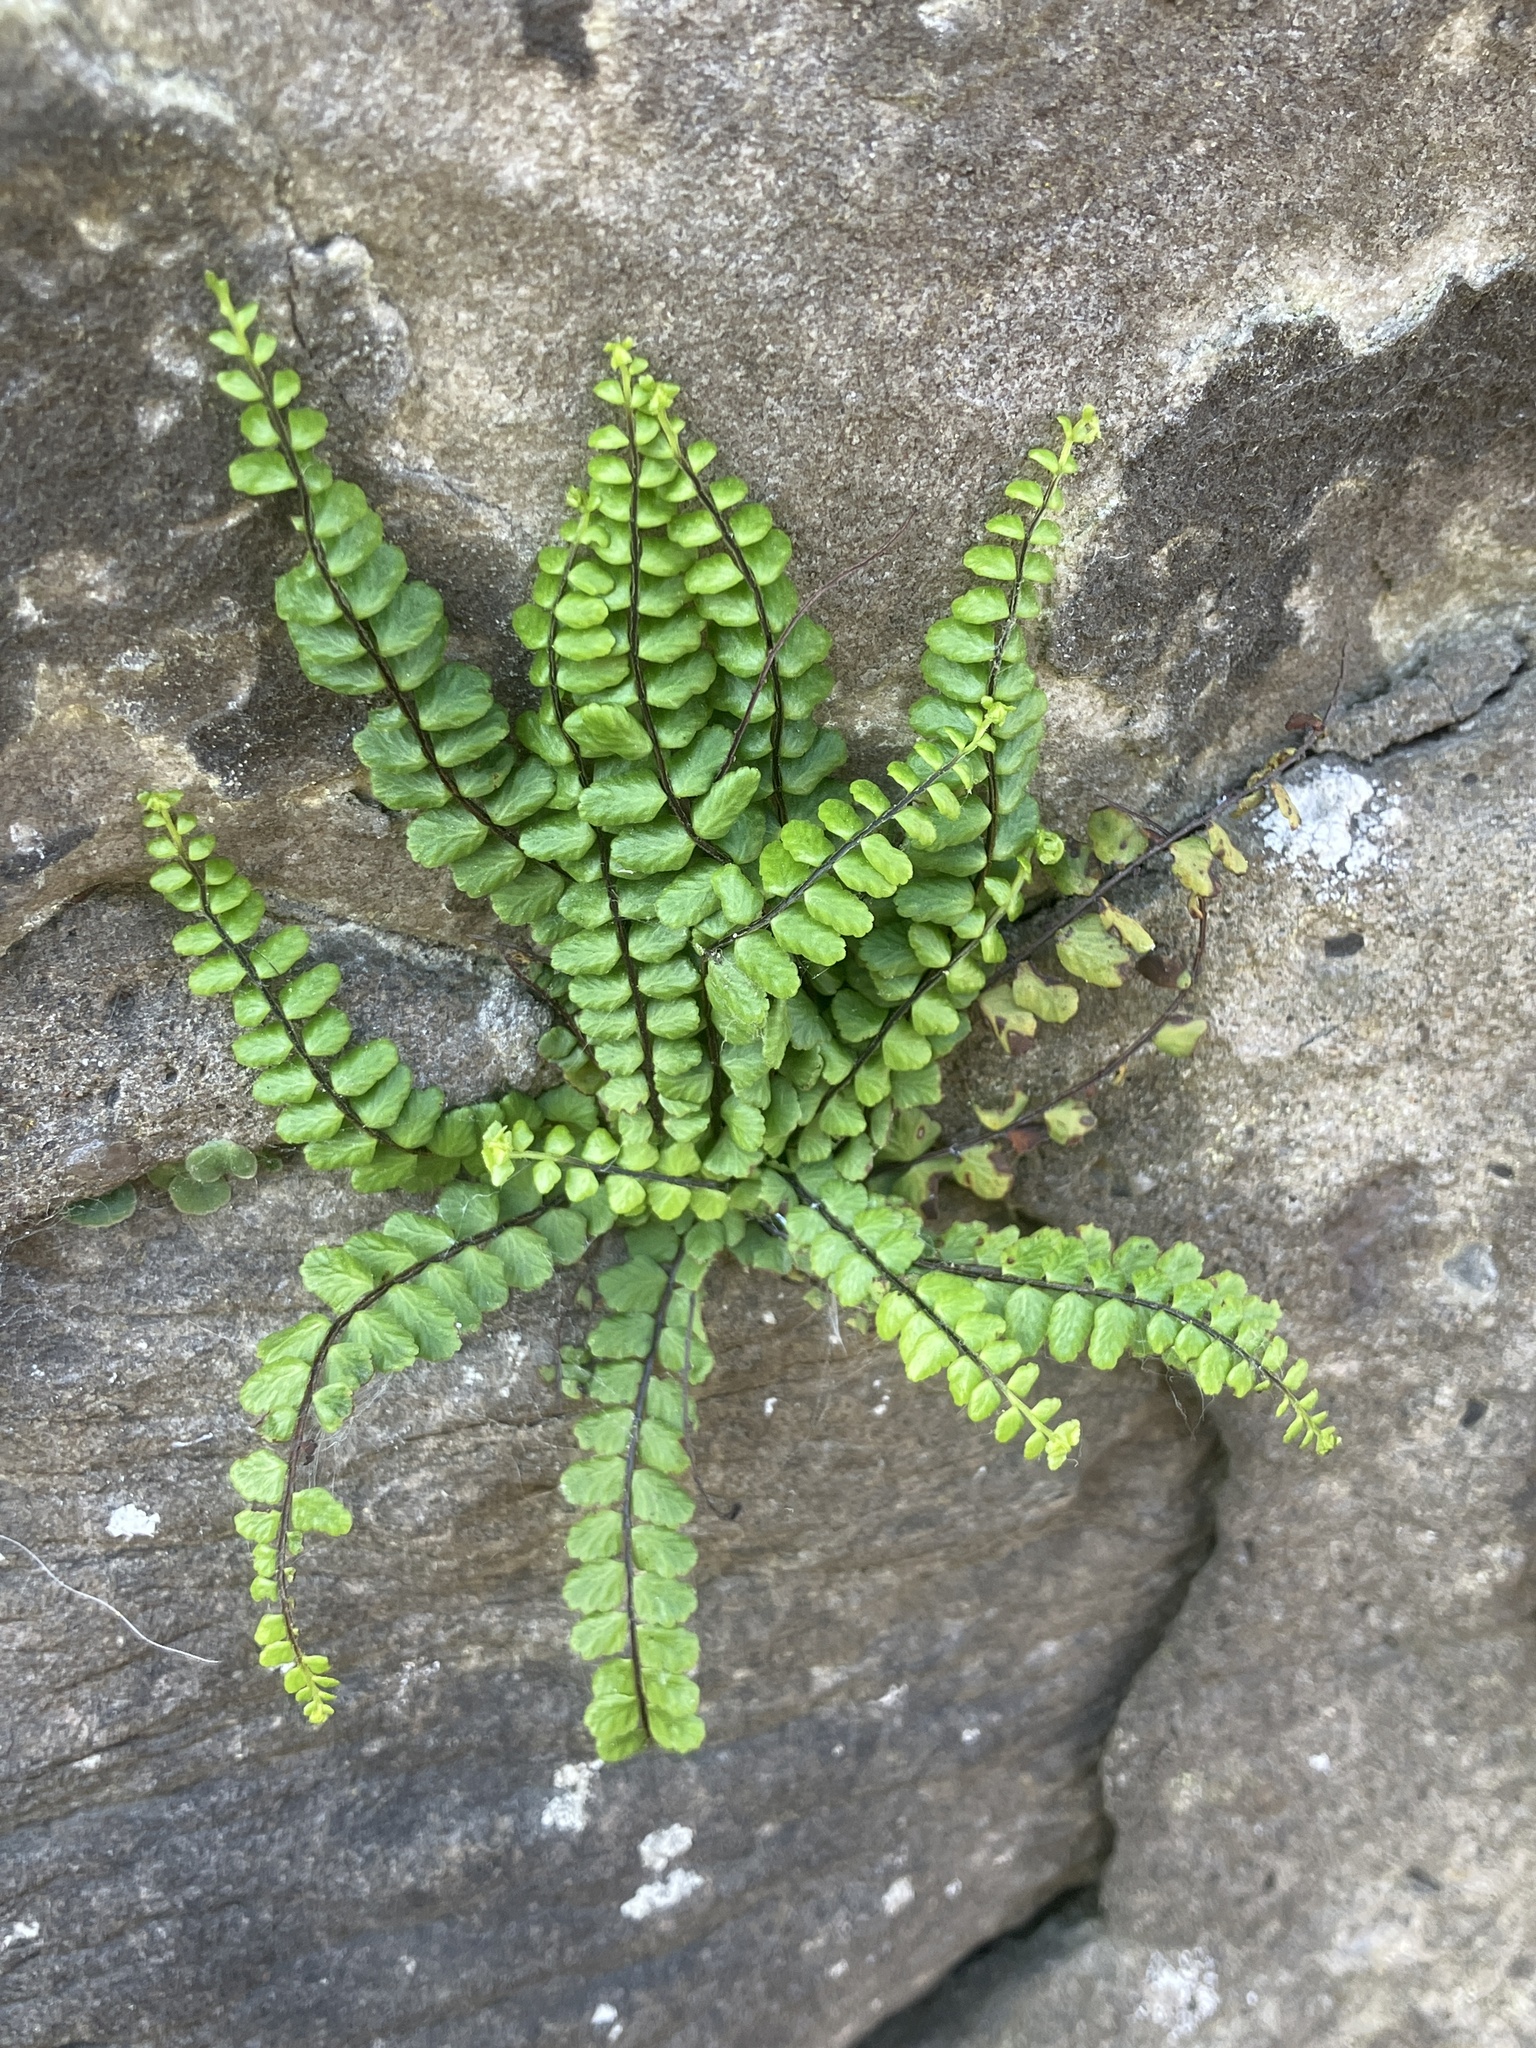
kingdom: Plantae
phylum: Tracheophyta
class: Polypodiopsida
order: Polypodiales
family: Aspleniaceae
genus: Asplenium
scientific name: Asplenium trichomanes
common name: Maidenhair spleenwort
